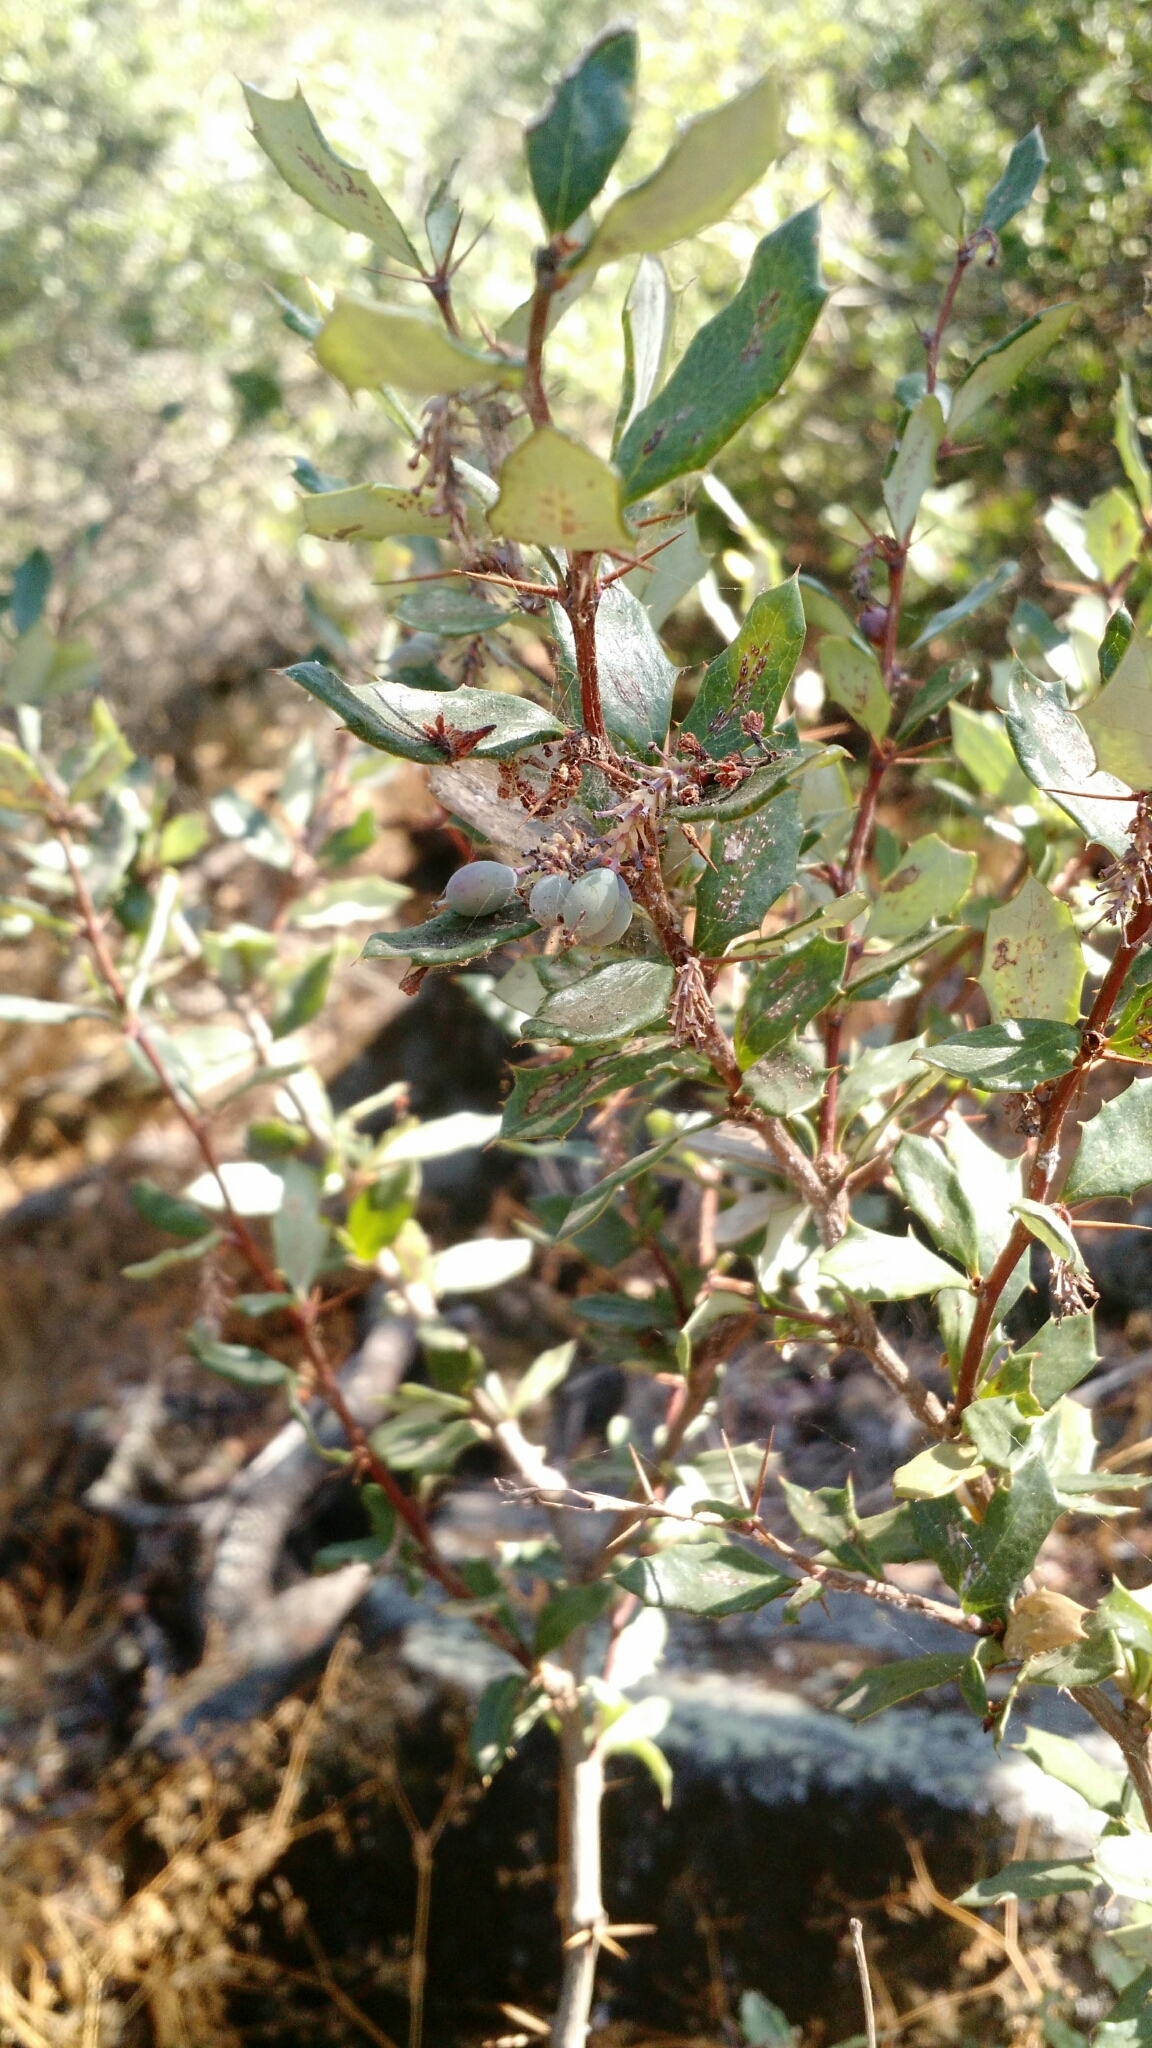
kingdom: Plantae
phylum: Tracheophyta
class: Magnoliopsida
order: Ranunculales
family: Berberidaceae
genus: Berberis
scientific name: Berberis chilensis
